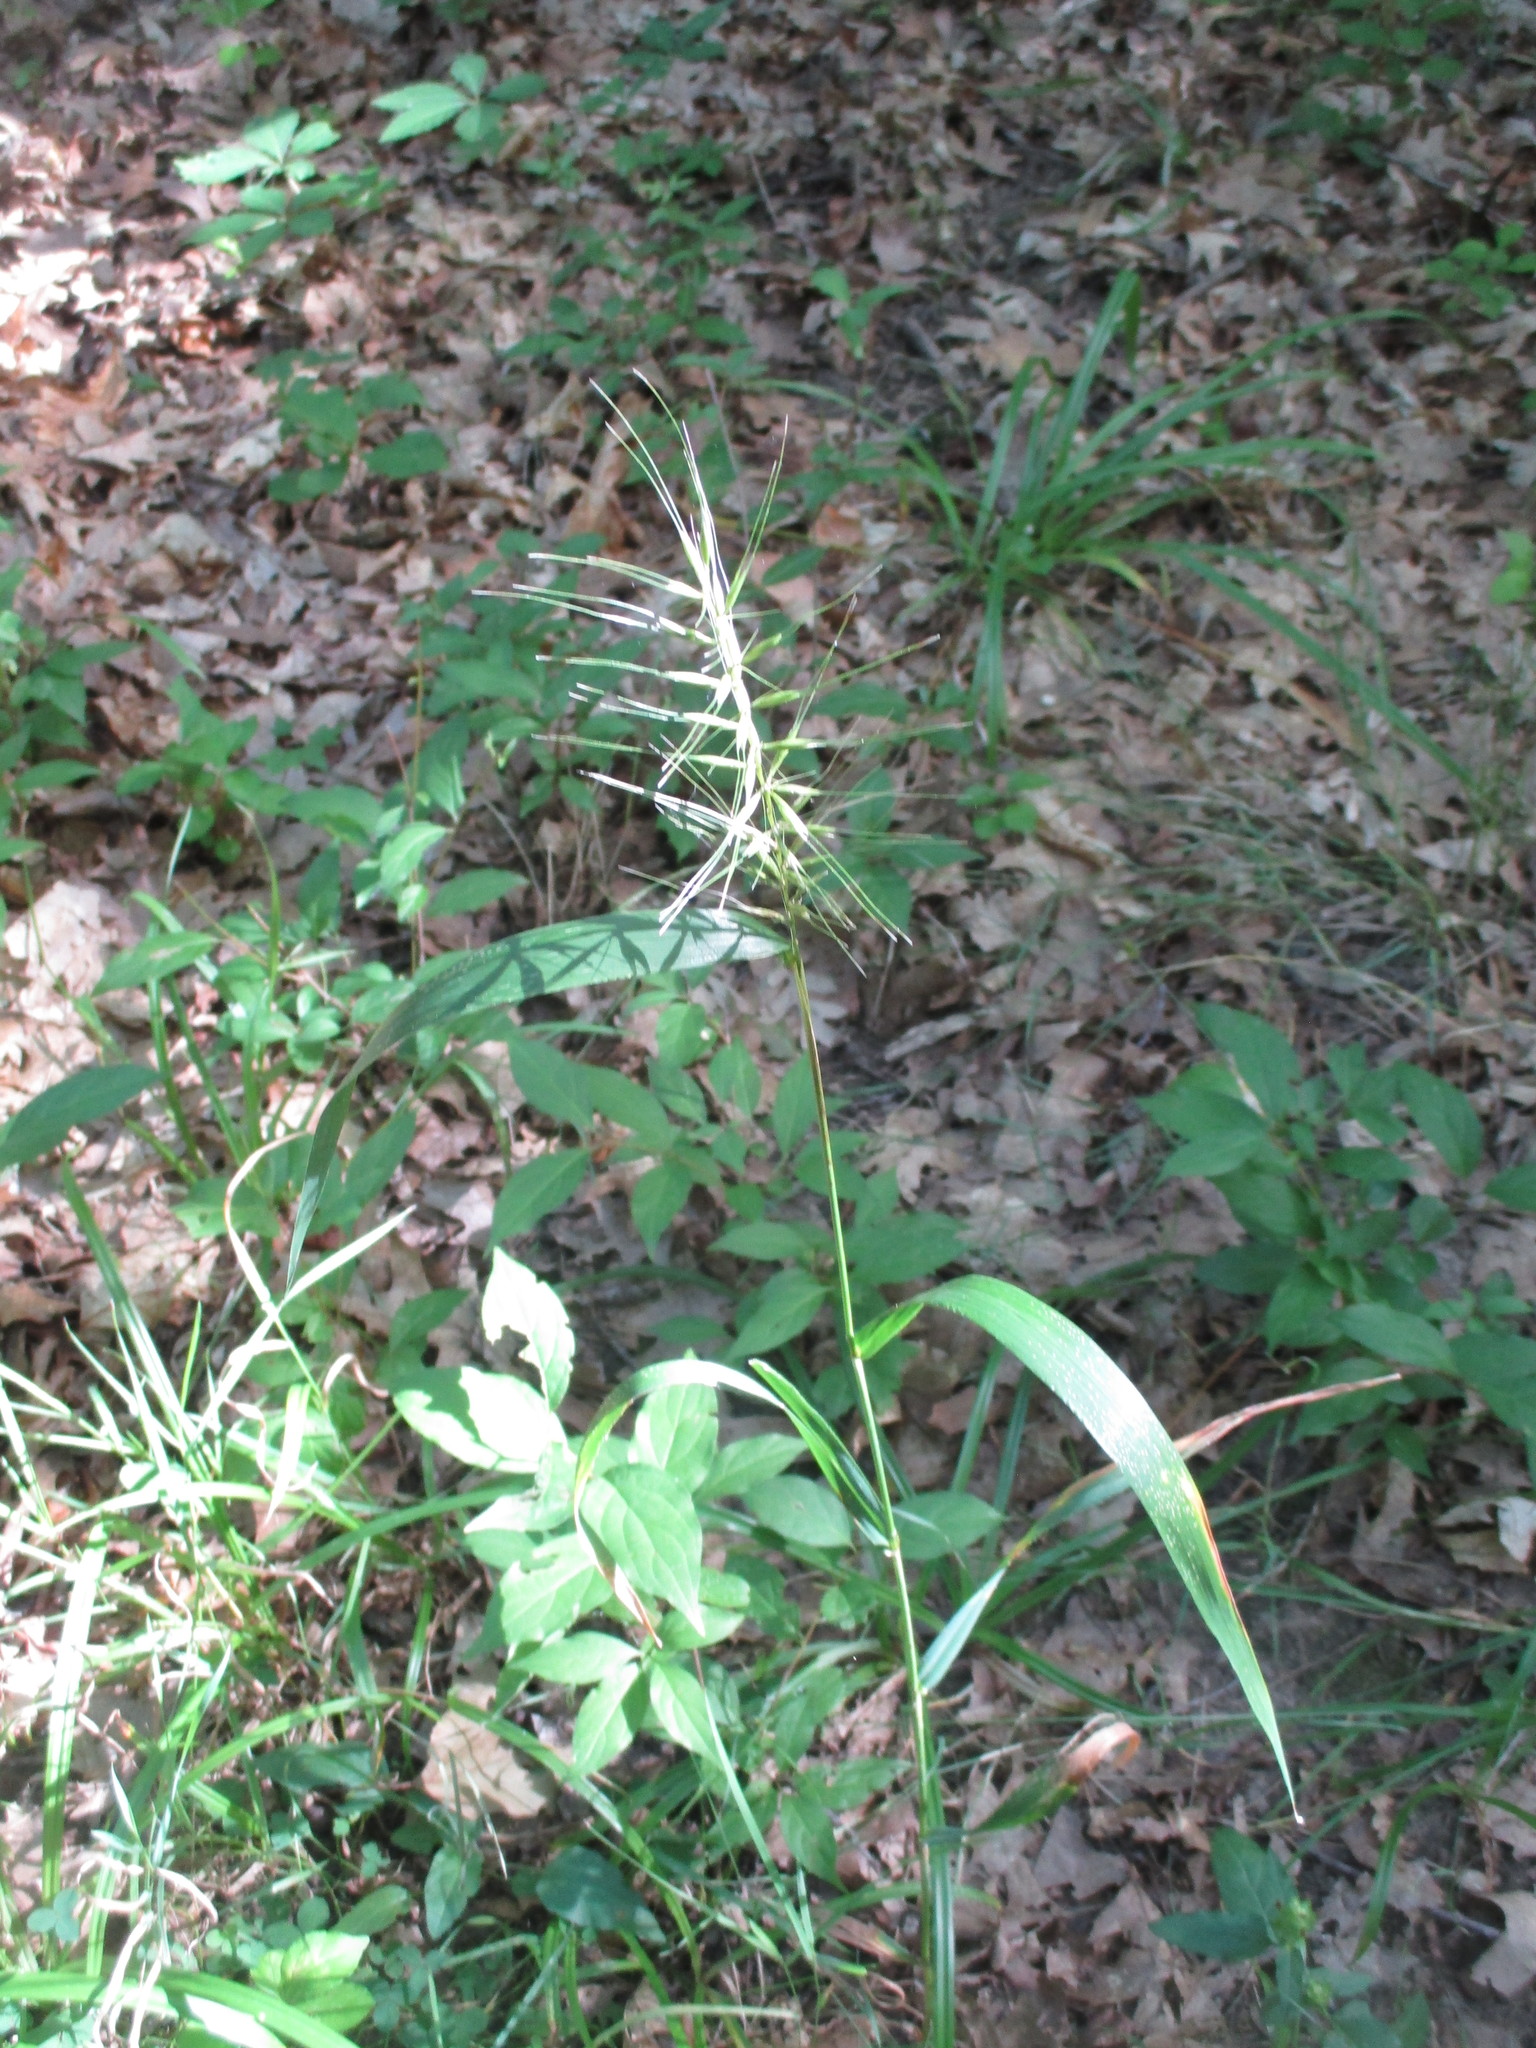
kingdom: Plantae
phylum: Tracheophyta
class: Liliopsida
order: Poales
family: Poaceae
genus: Elymus
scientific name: Elymus hystrix
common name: Bottlebrush grass
